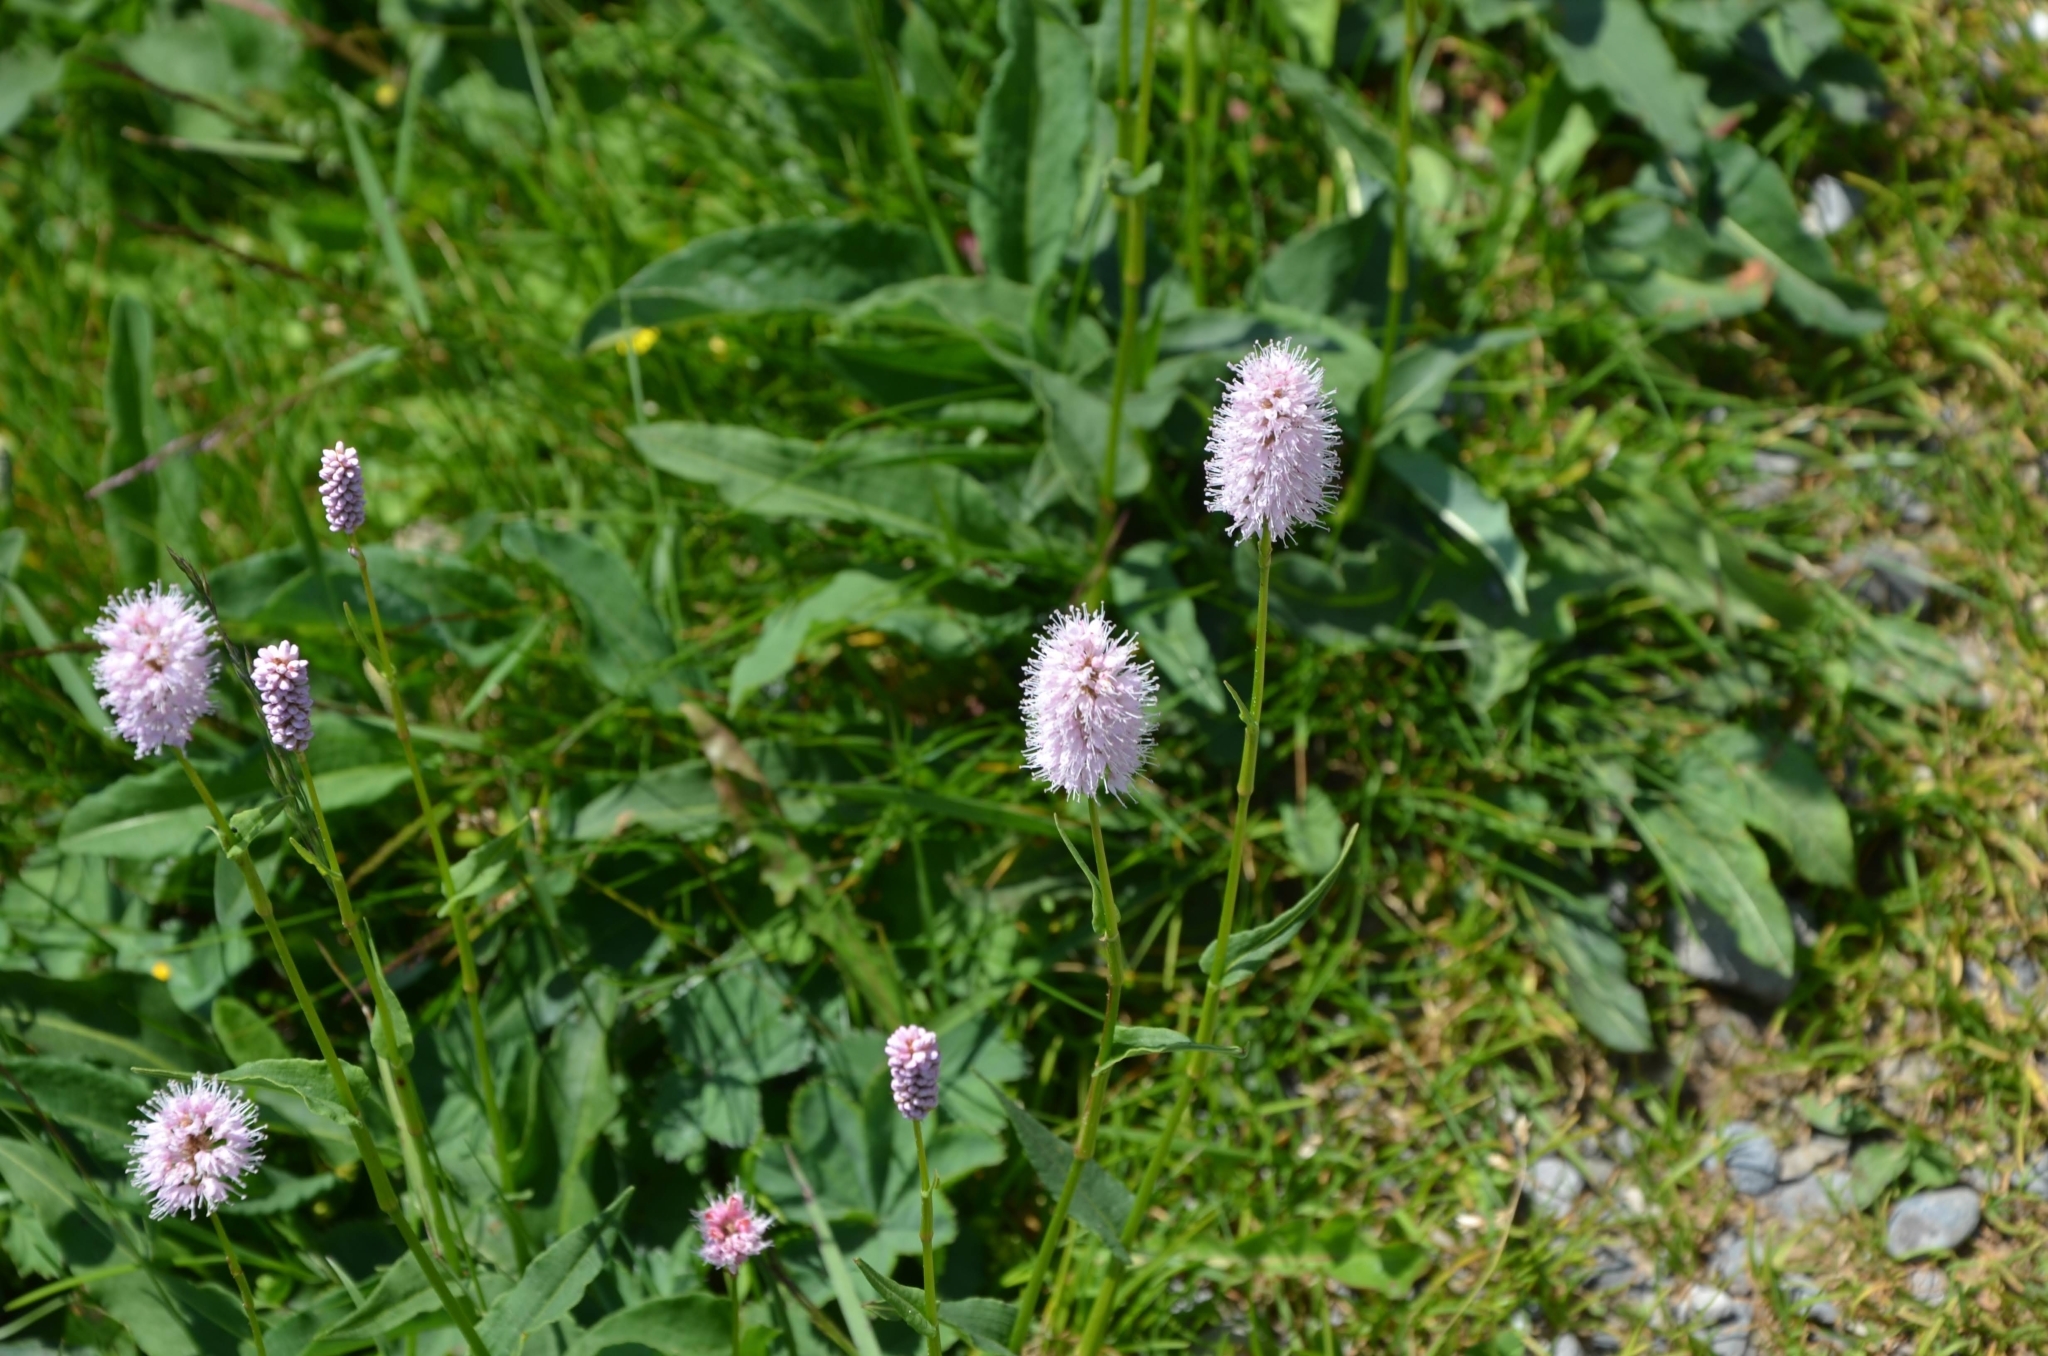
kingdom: Plantae
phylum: Tracheophyta
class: Magnoliopsida
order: Caryophyllales
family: Polygonaceae
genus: Bistorta
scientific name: Bistorta officinalis
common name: Common bistort
